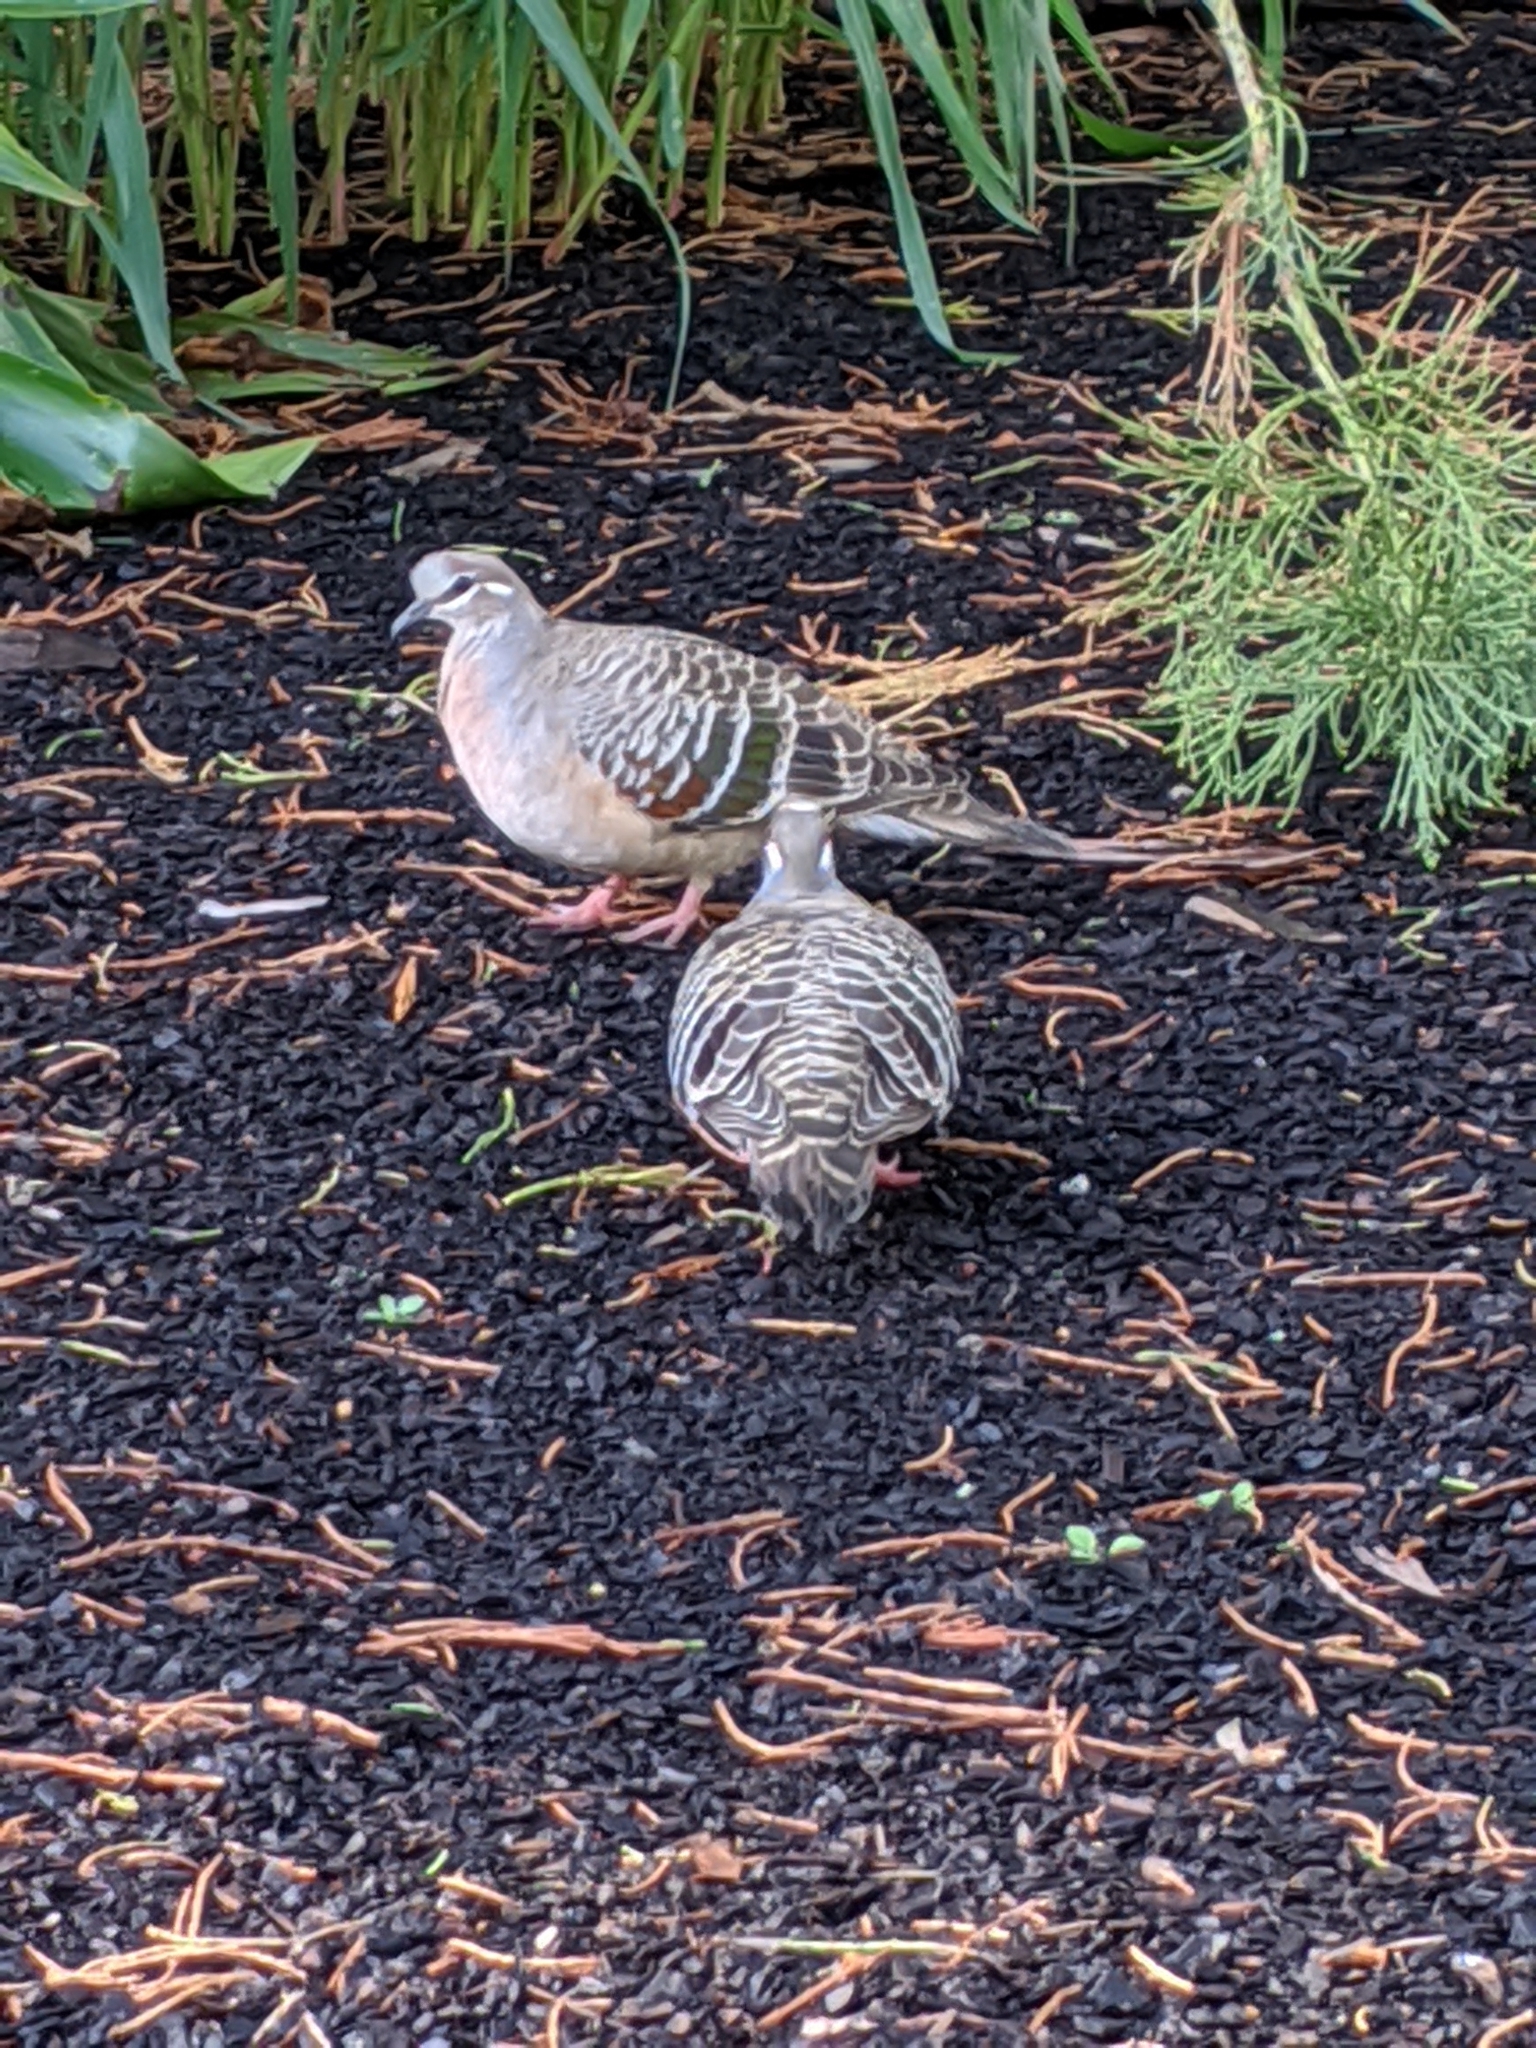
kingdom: Animalia
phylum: Chordata
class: Aves
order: Columbiformes
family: Columbidae
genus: Phaps
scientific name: Phaps chalcoptera
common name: Common bronzewing
